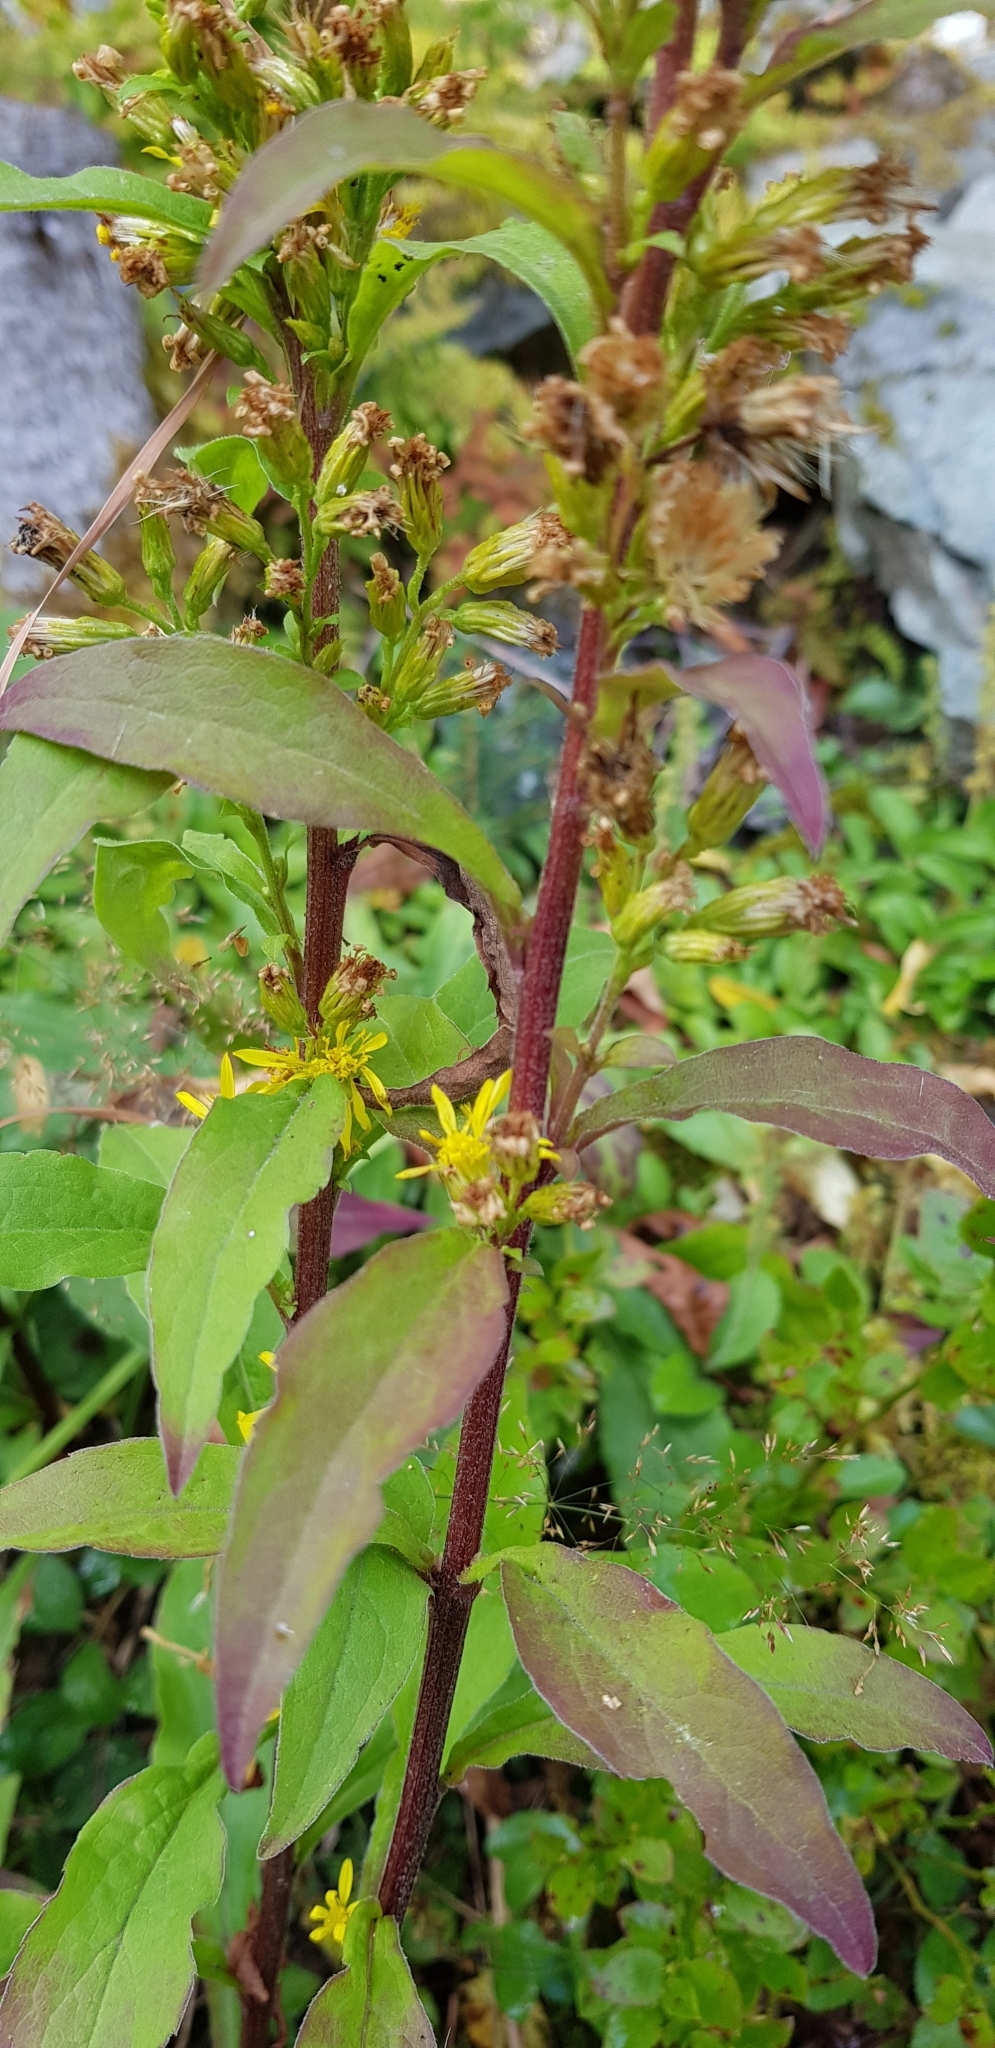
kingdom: Plantae
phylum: Tracheophyta
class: Magnoliopsida
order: Asterales
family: Asteraceae
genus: Solidago
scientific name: Solidago virgaurea
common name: Goldenrod
